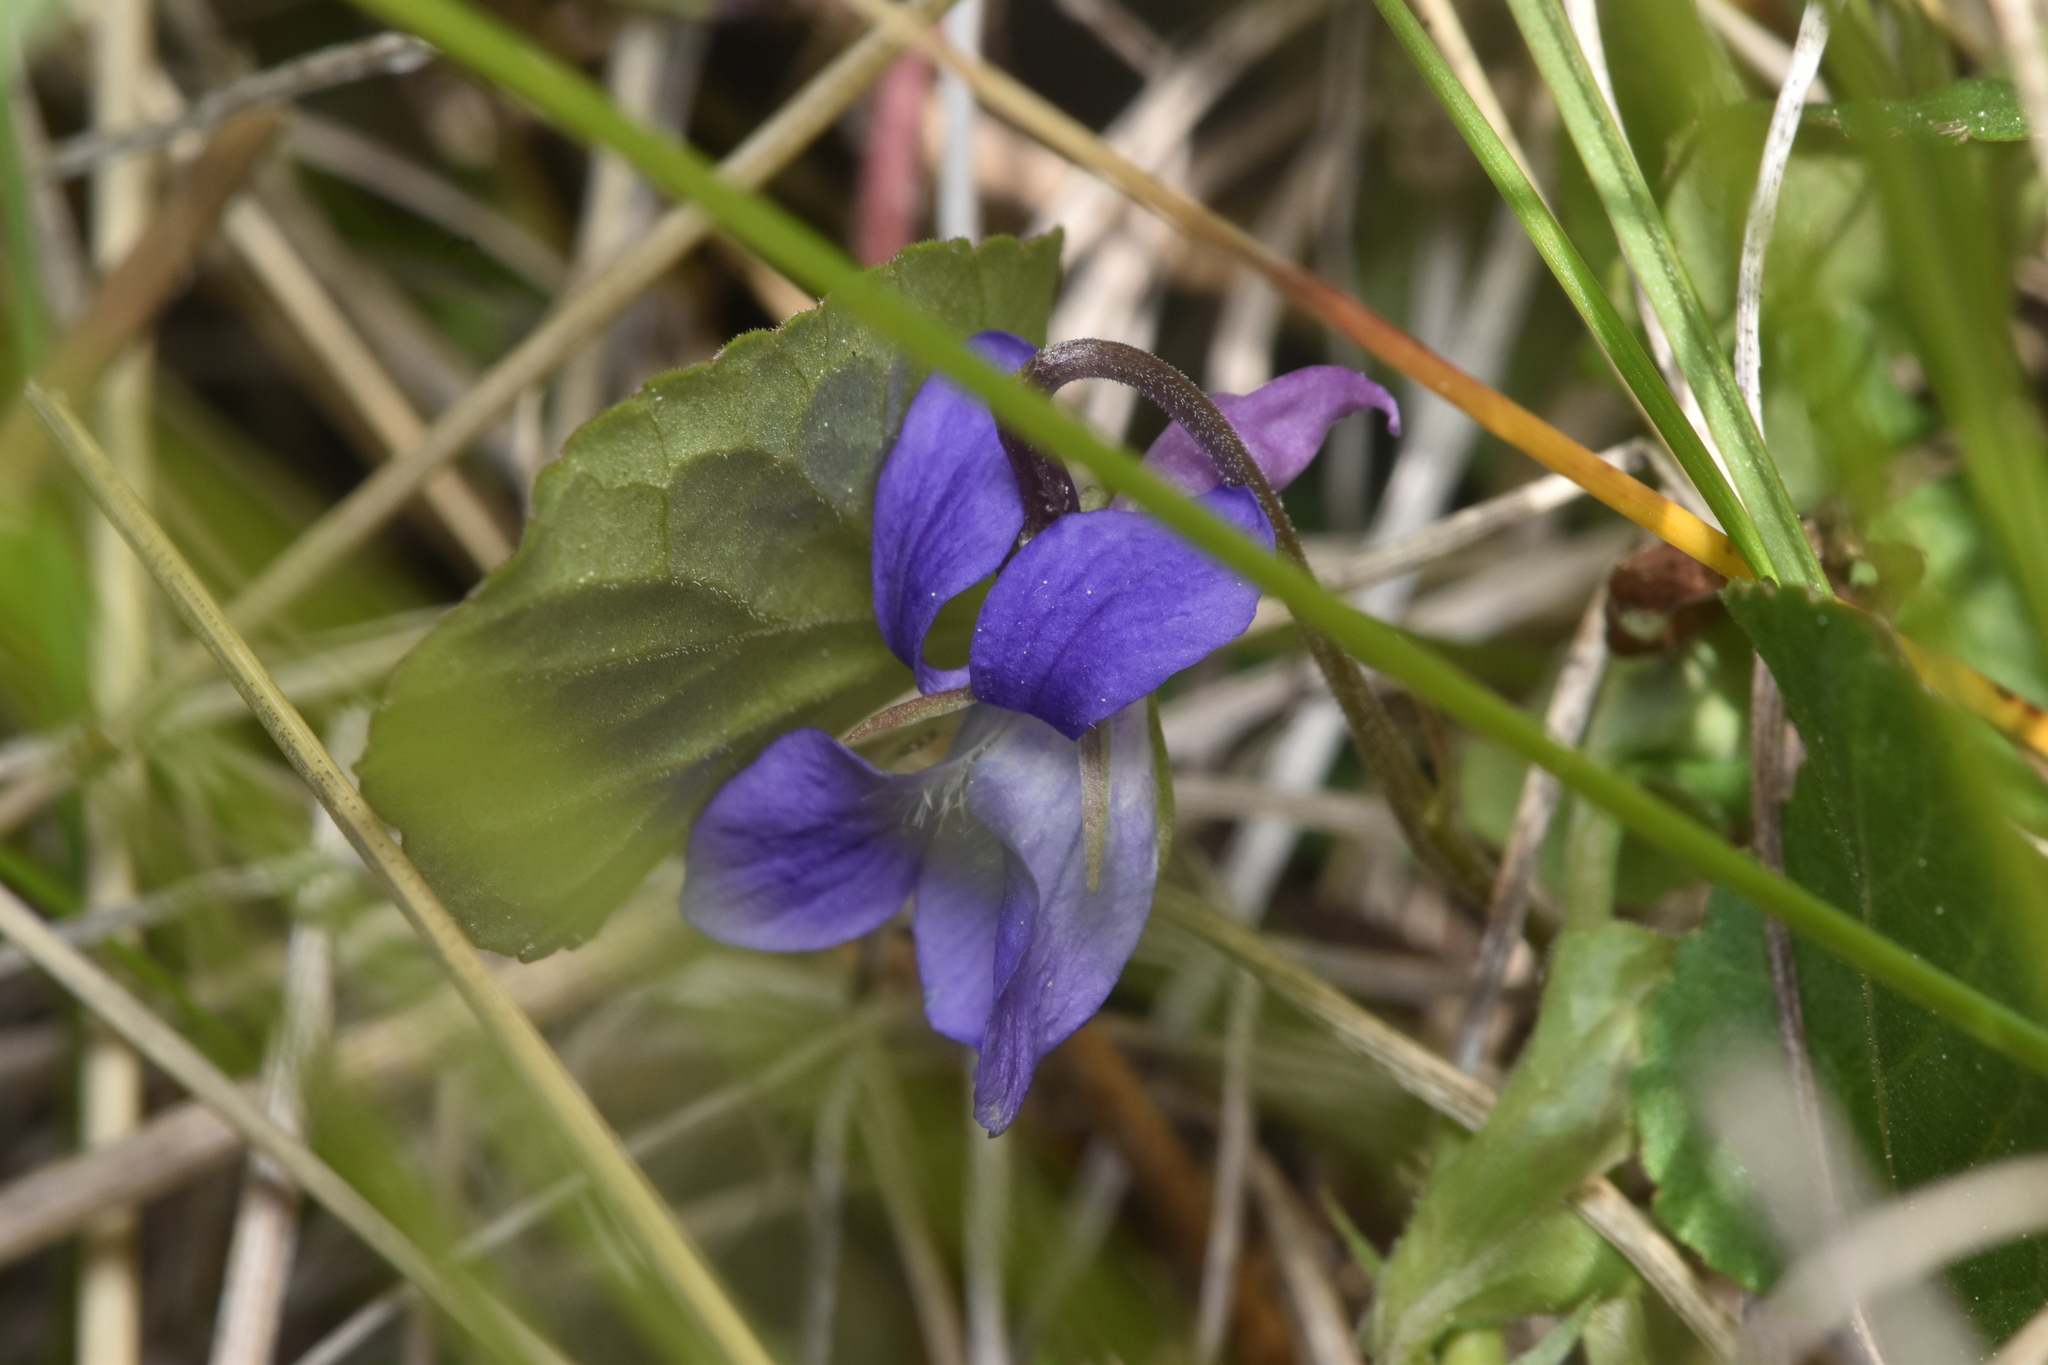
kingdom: Plantae
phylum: Tracheophyta
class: Magnoliopsida
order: Malpighiales
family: Violaceae
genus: Viola
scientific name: Viola adunca
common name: Sand violet
